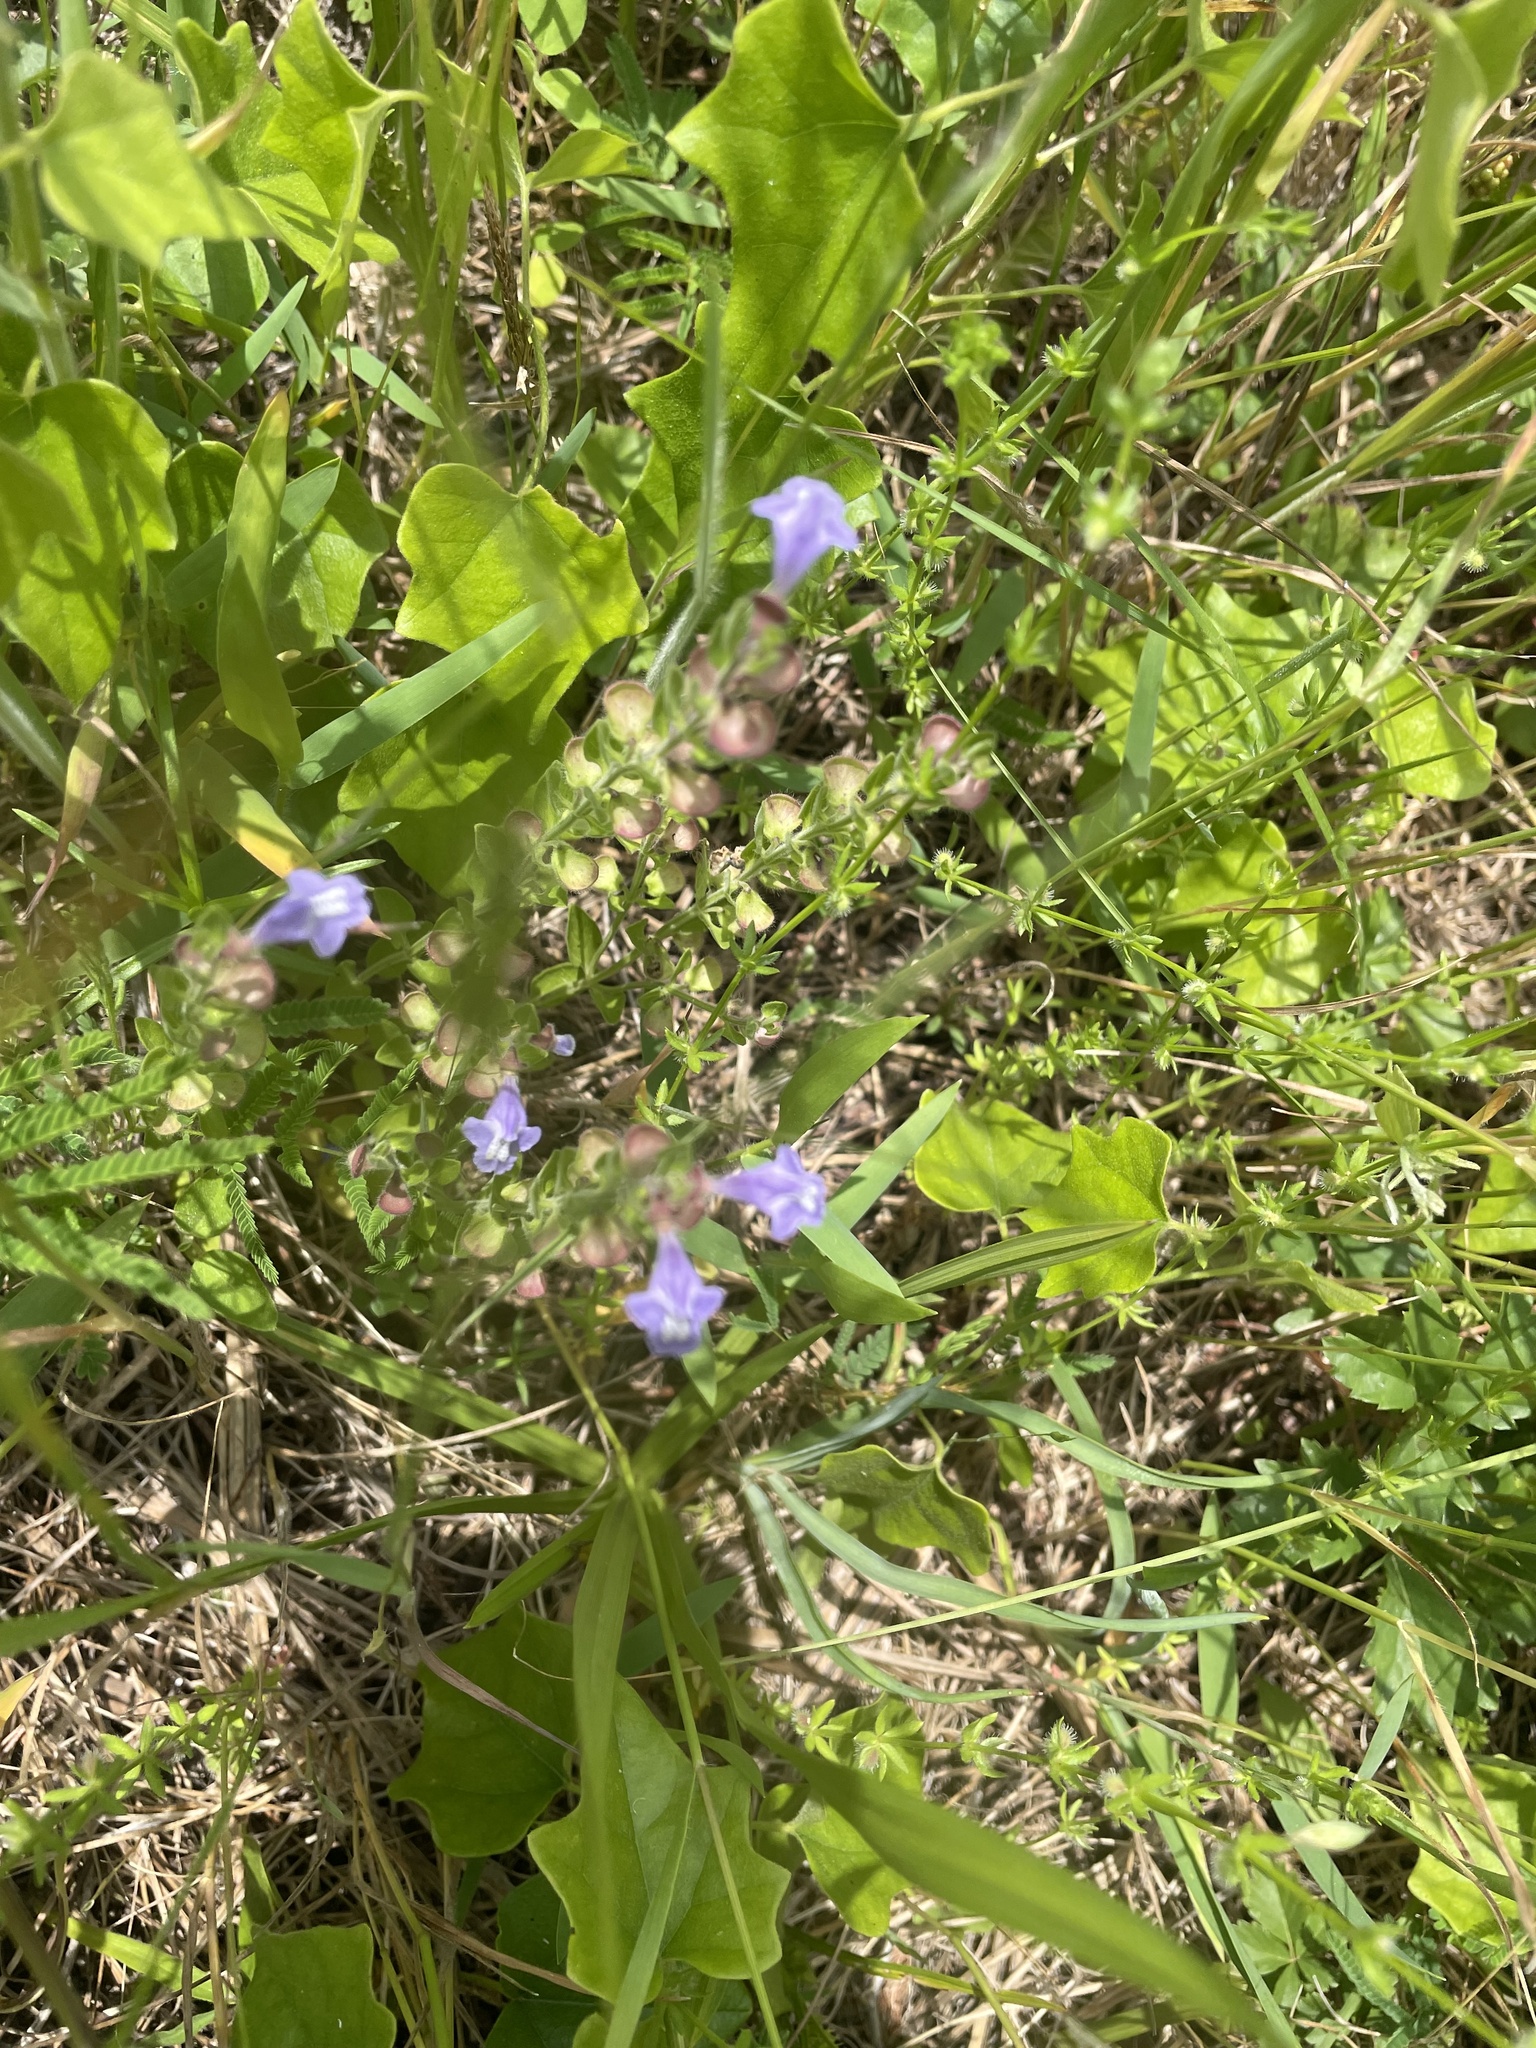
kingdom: Plantae
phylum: Tracheophyta
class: Magnoliopsida
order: Lamiales
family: Lamiaceae
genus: Scutellaria
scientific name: Scutellaria drummondii
